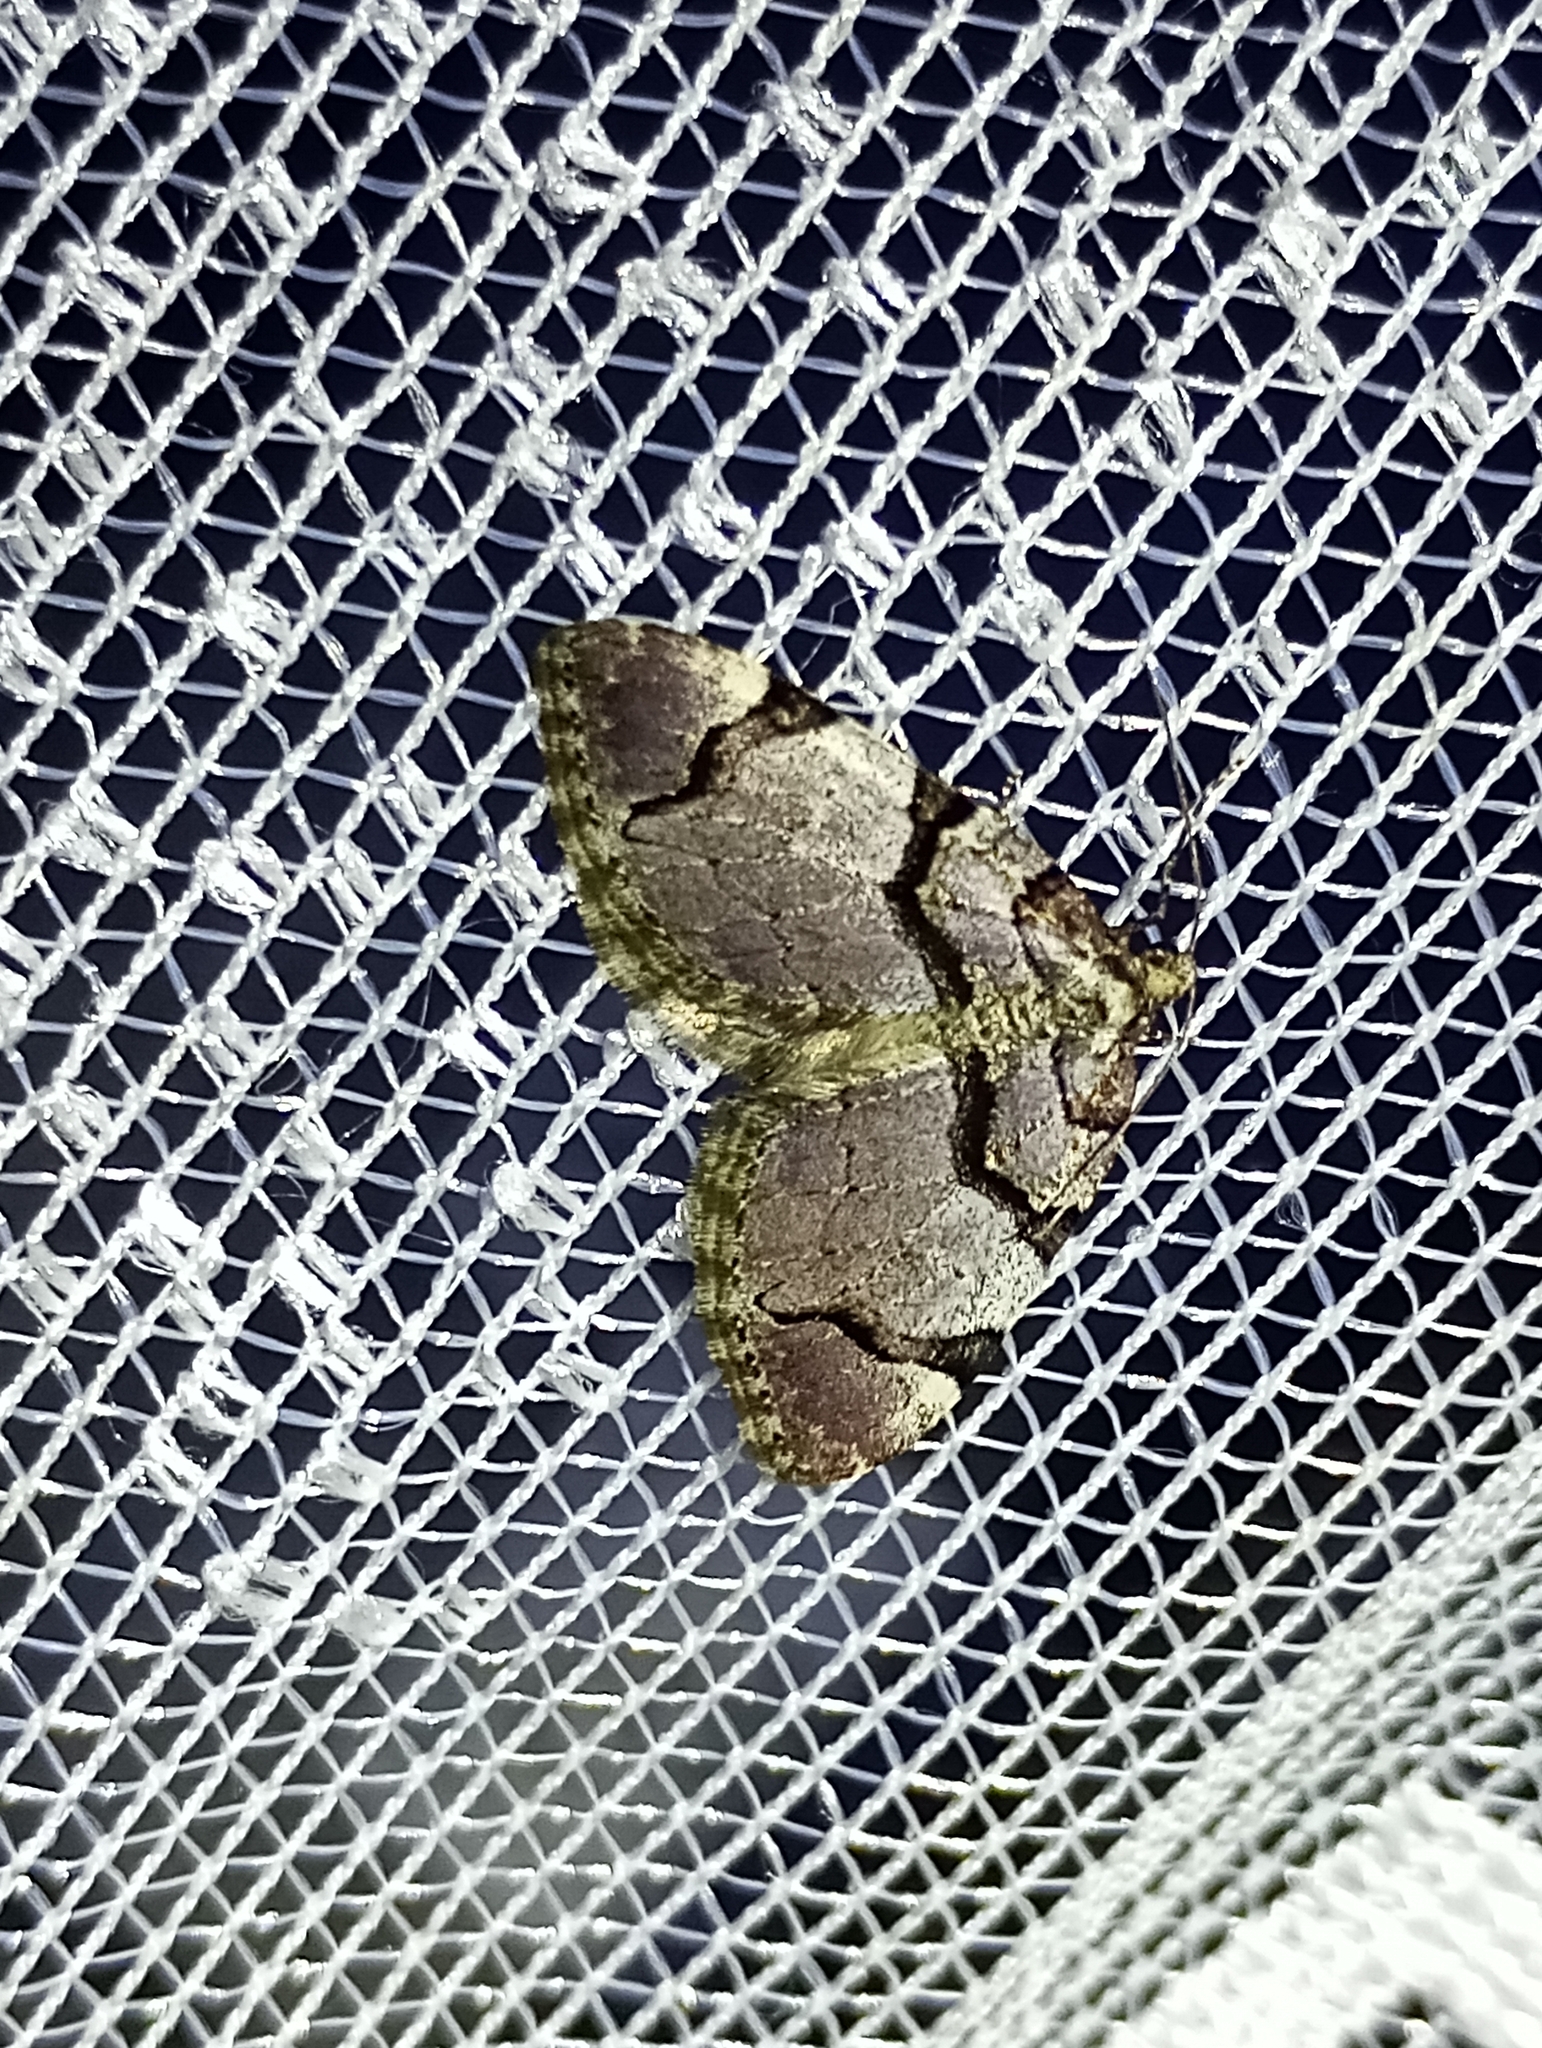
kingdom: Animalia
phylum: Arthropoda
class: Insecta
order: Lepidoptera
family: Geometridae
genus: Anticlea
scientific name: Anticlea derivata
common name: Streamer
